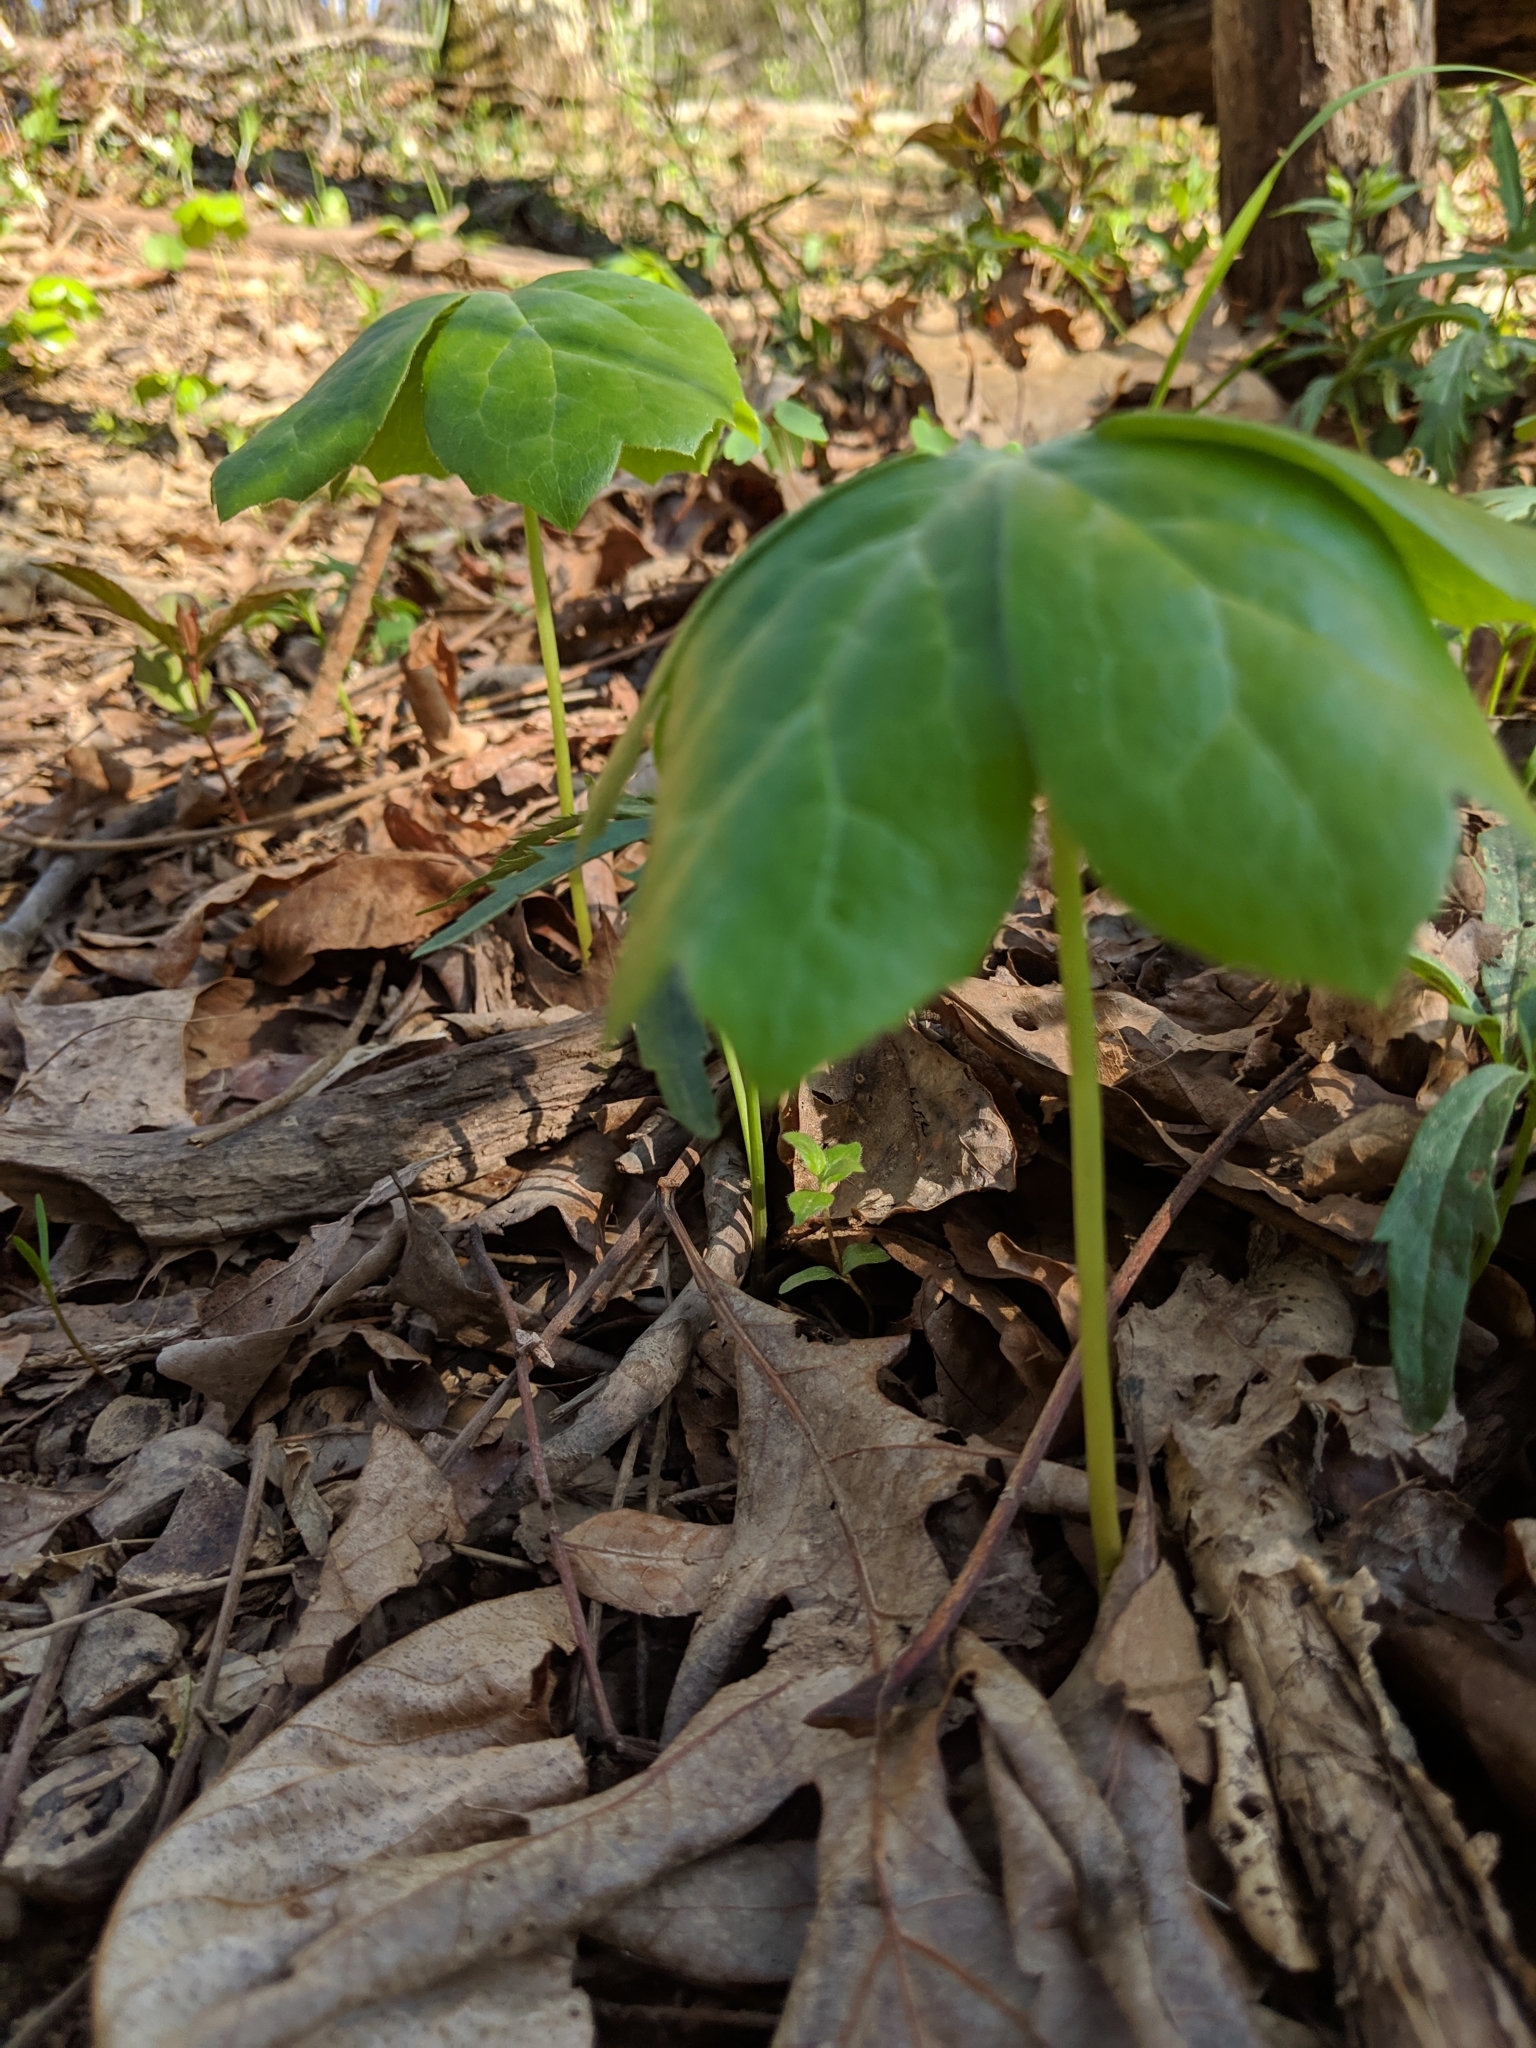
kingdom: Plantae
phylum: Tracheophyta
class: Magnoliopsida
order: Ranunculales
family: Berberidaceae
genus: Podophyllum
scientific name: Podophyllum peltatum
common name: Wild mandrake
